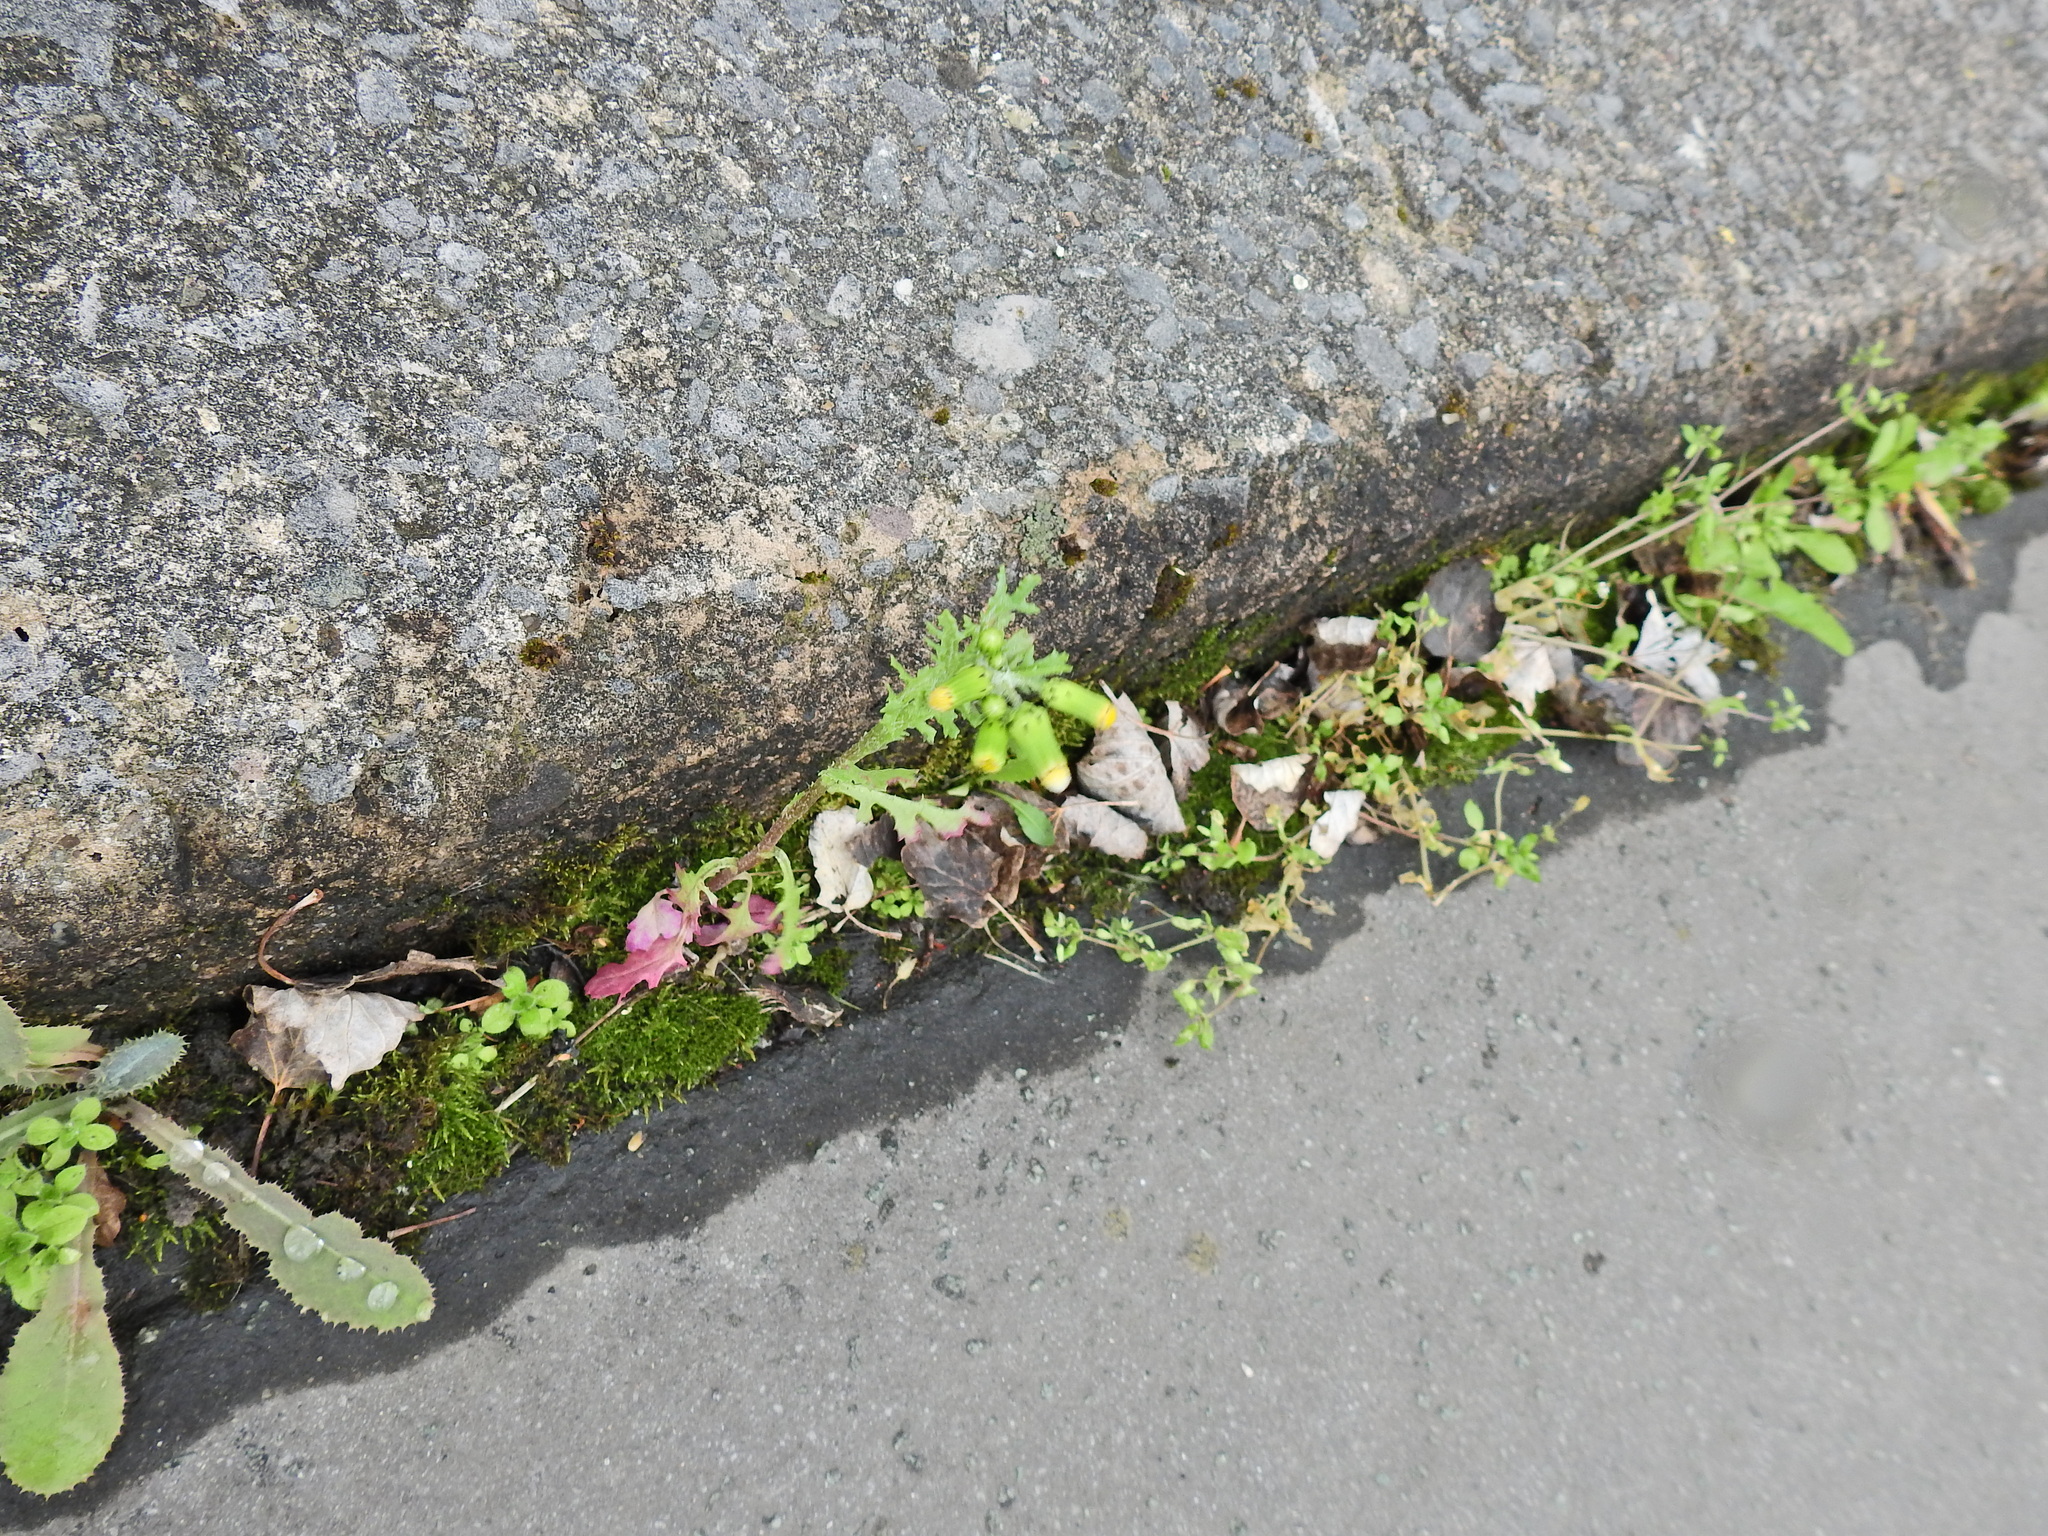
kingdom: Plantae
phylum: Tracheophyta
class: Magnoliopsida
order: Asterales
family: Asteraceae
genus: Senecio
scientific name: Senecio vulgaris
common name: Old-man-in-the-spring
